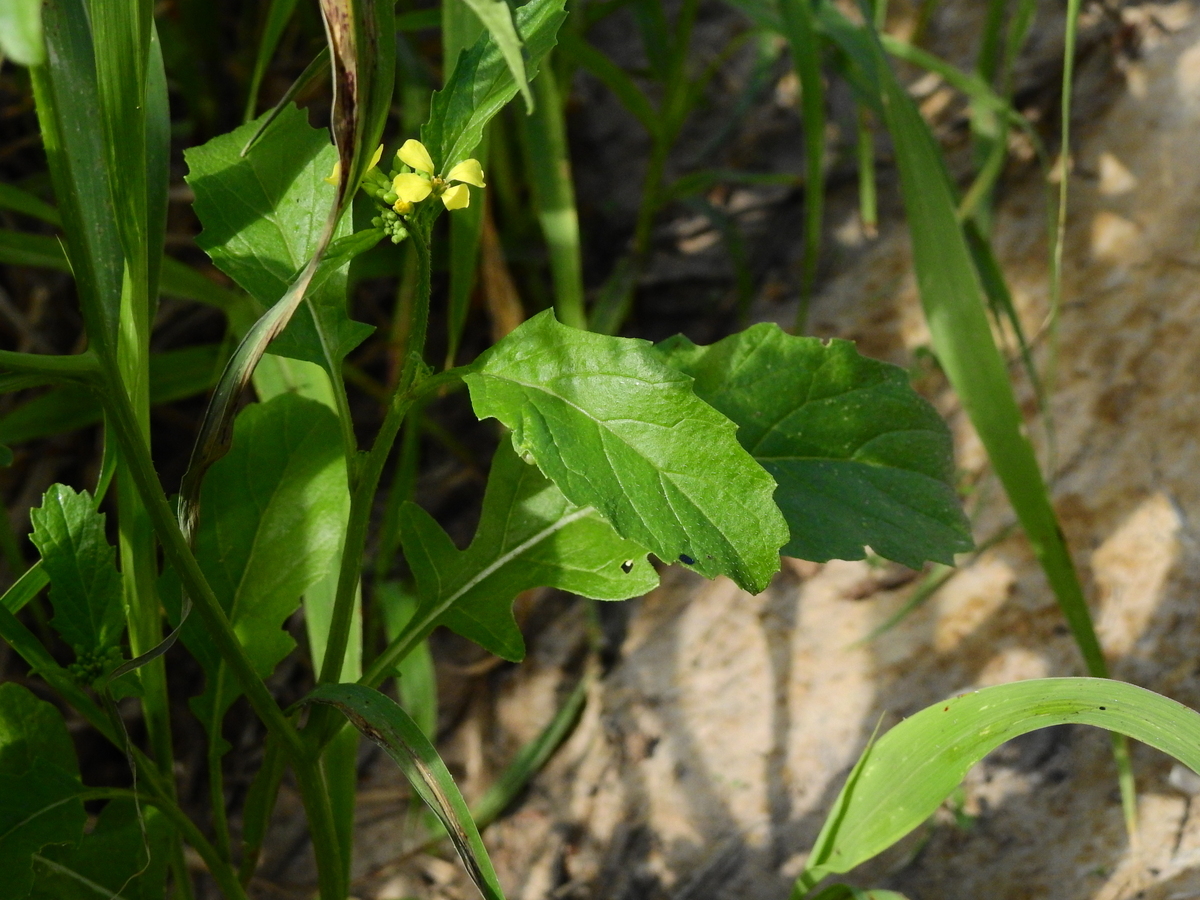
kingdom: Plantae
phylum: Tracheophyta
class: Magnoliopsida
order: Brassicales
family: Brassicaceae
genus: Rapistrum
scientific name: Rapistrum rugosum
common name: Annual bastardcabbage
